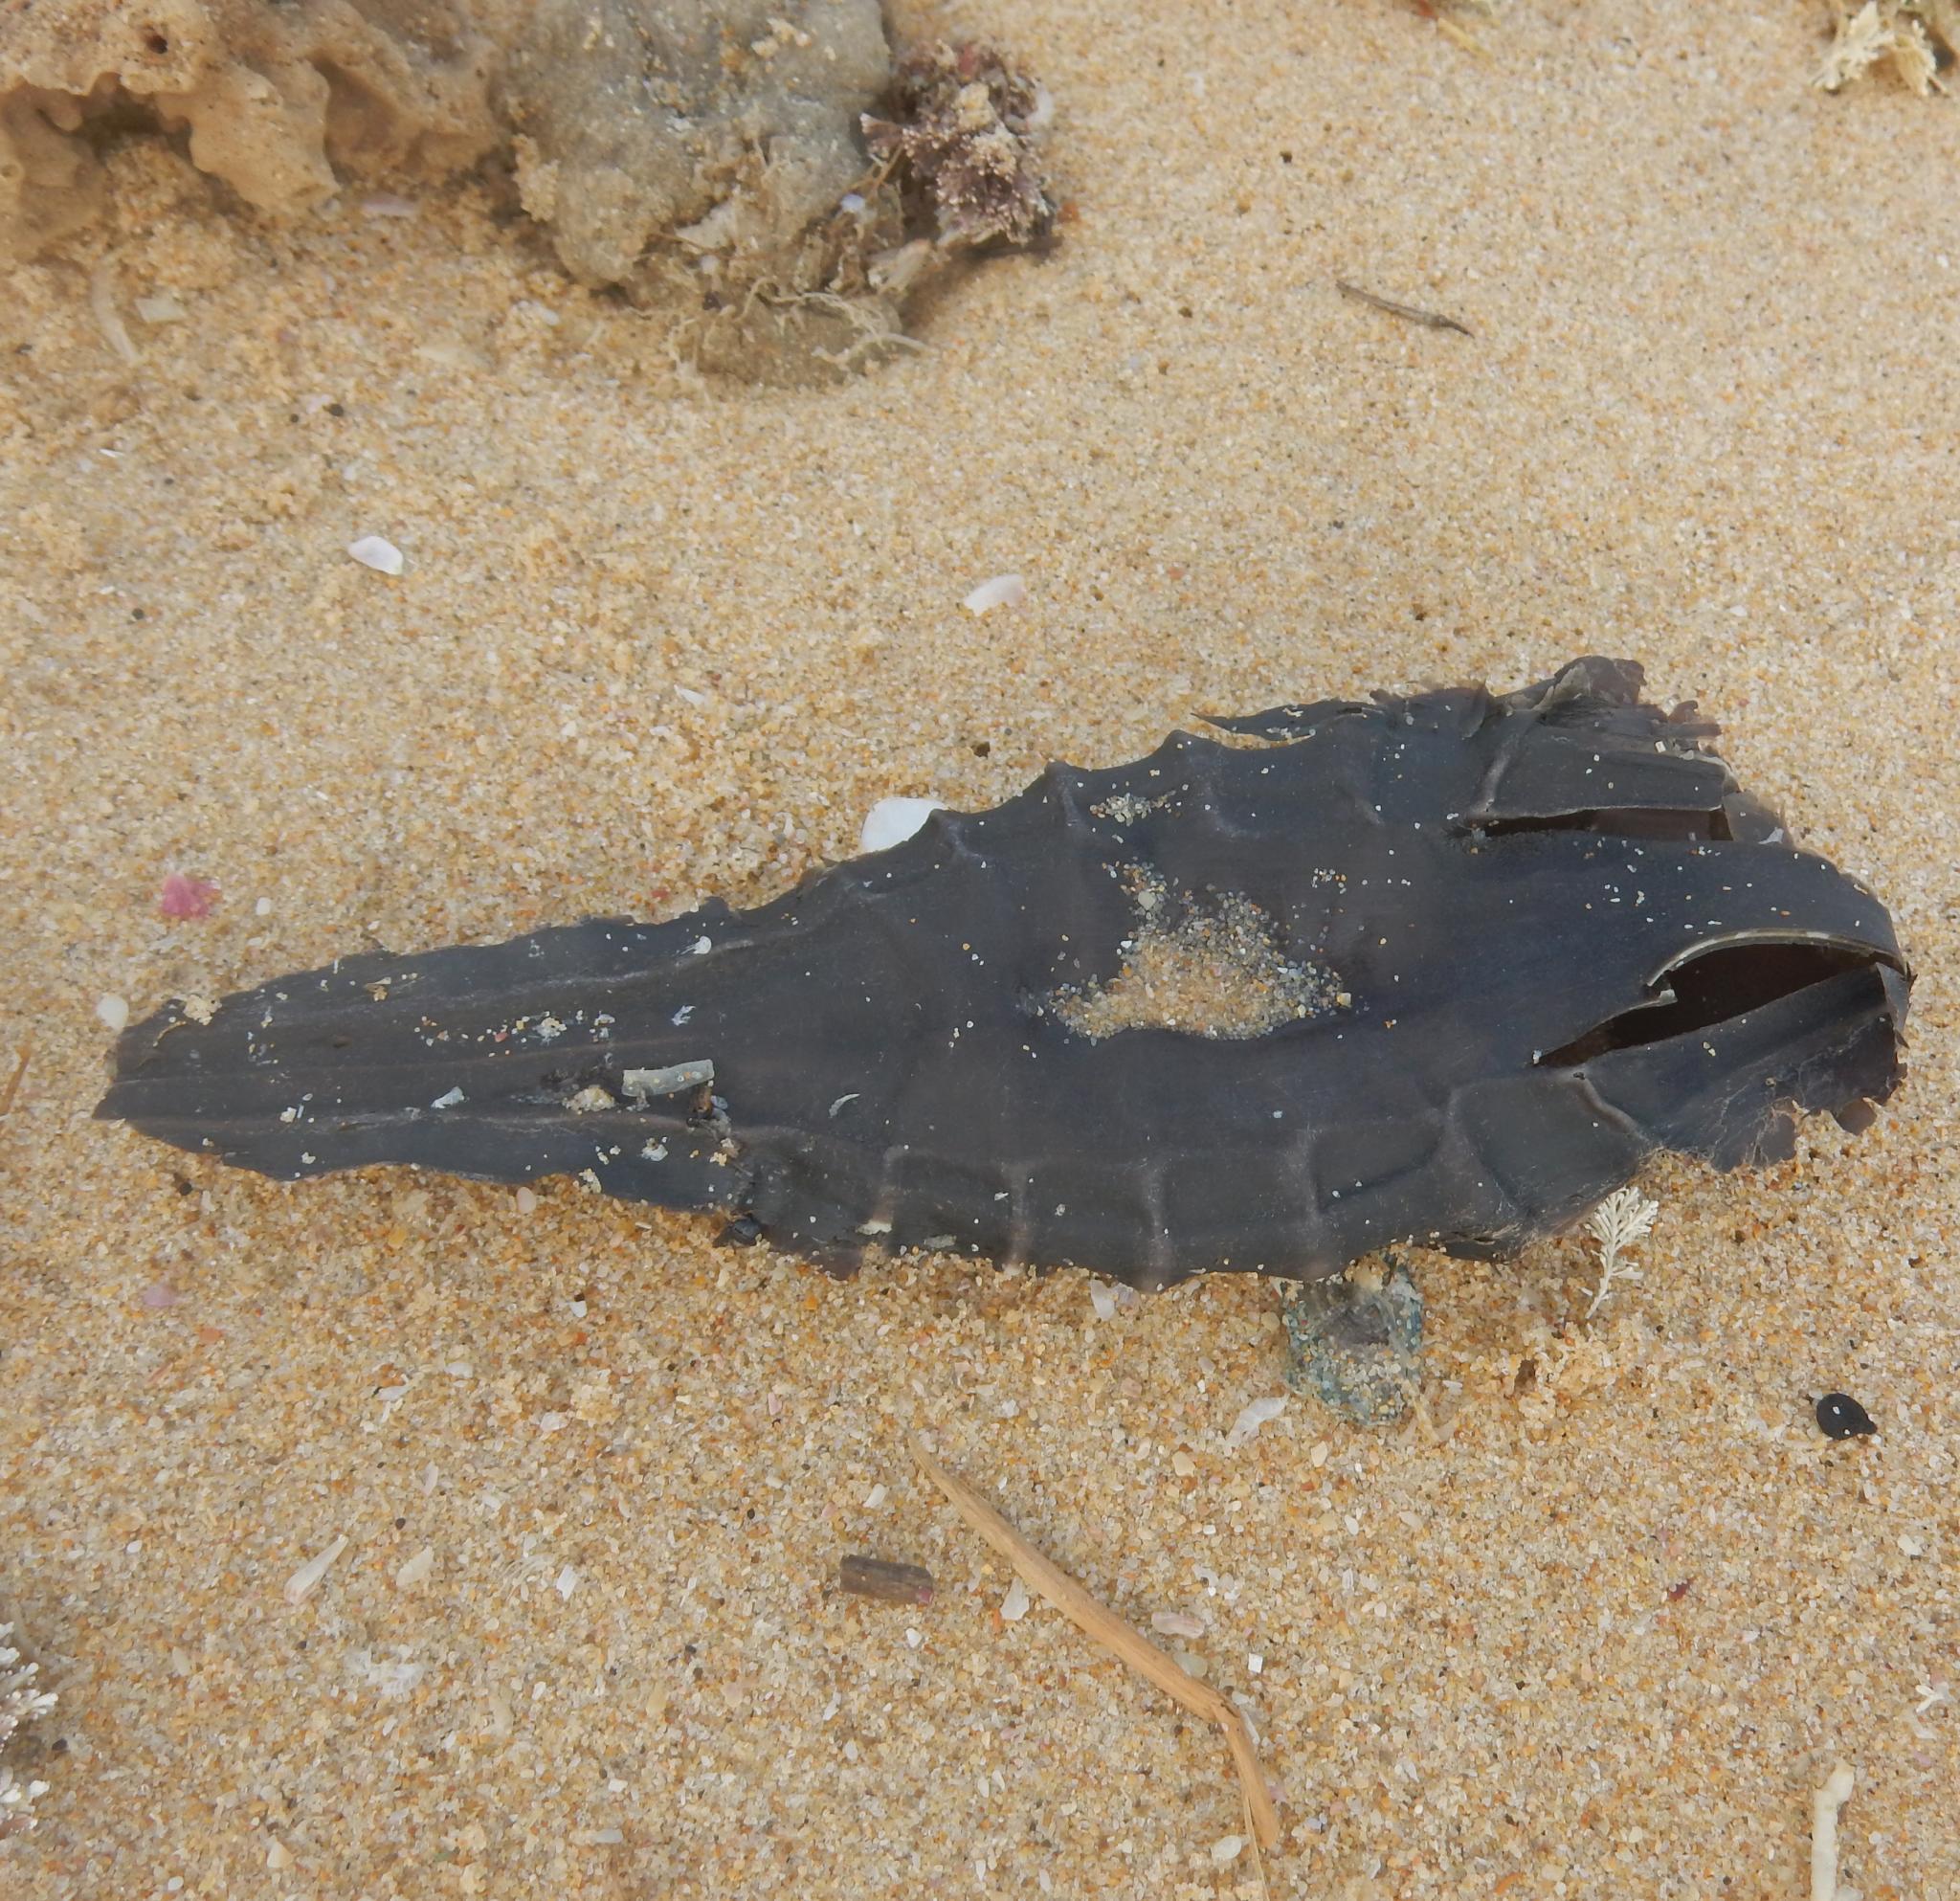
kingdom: Animalia
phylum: Chordata
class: Holocephali
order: Chimaeriformes
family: Callorhinchidae
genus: Callorhinchus
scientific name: Callorhinchus capensis
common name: Cape elephantfish
